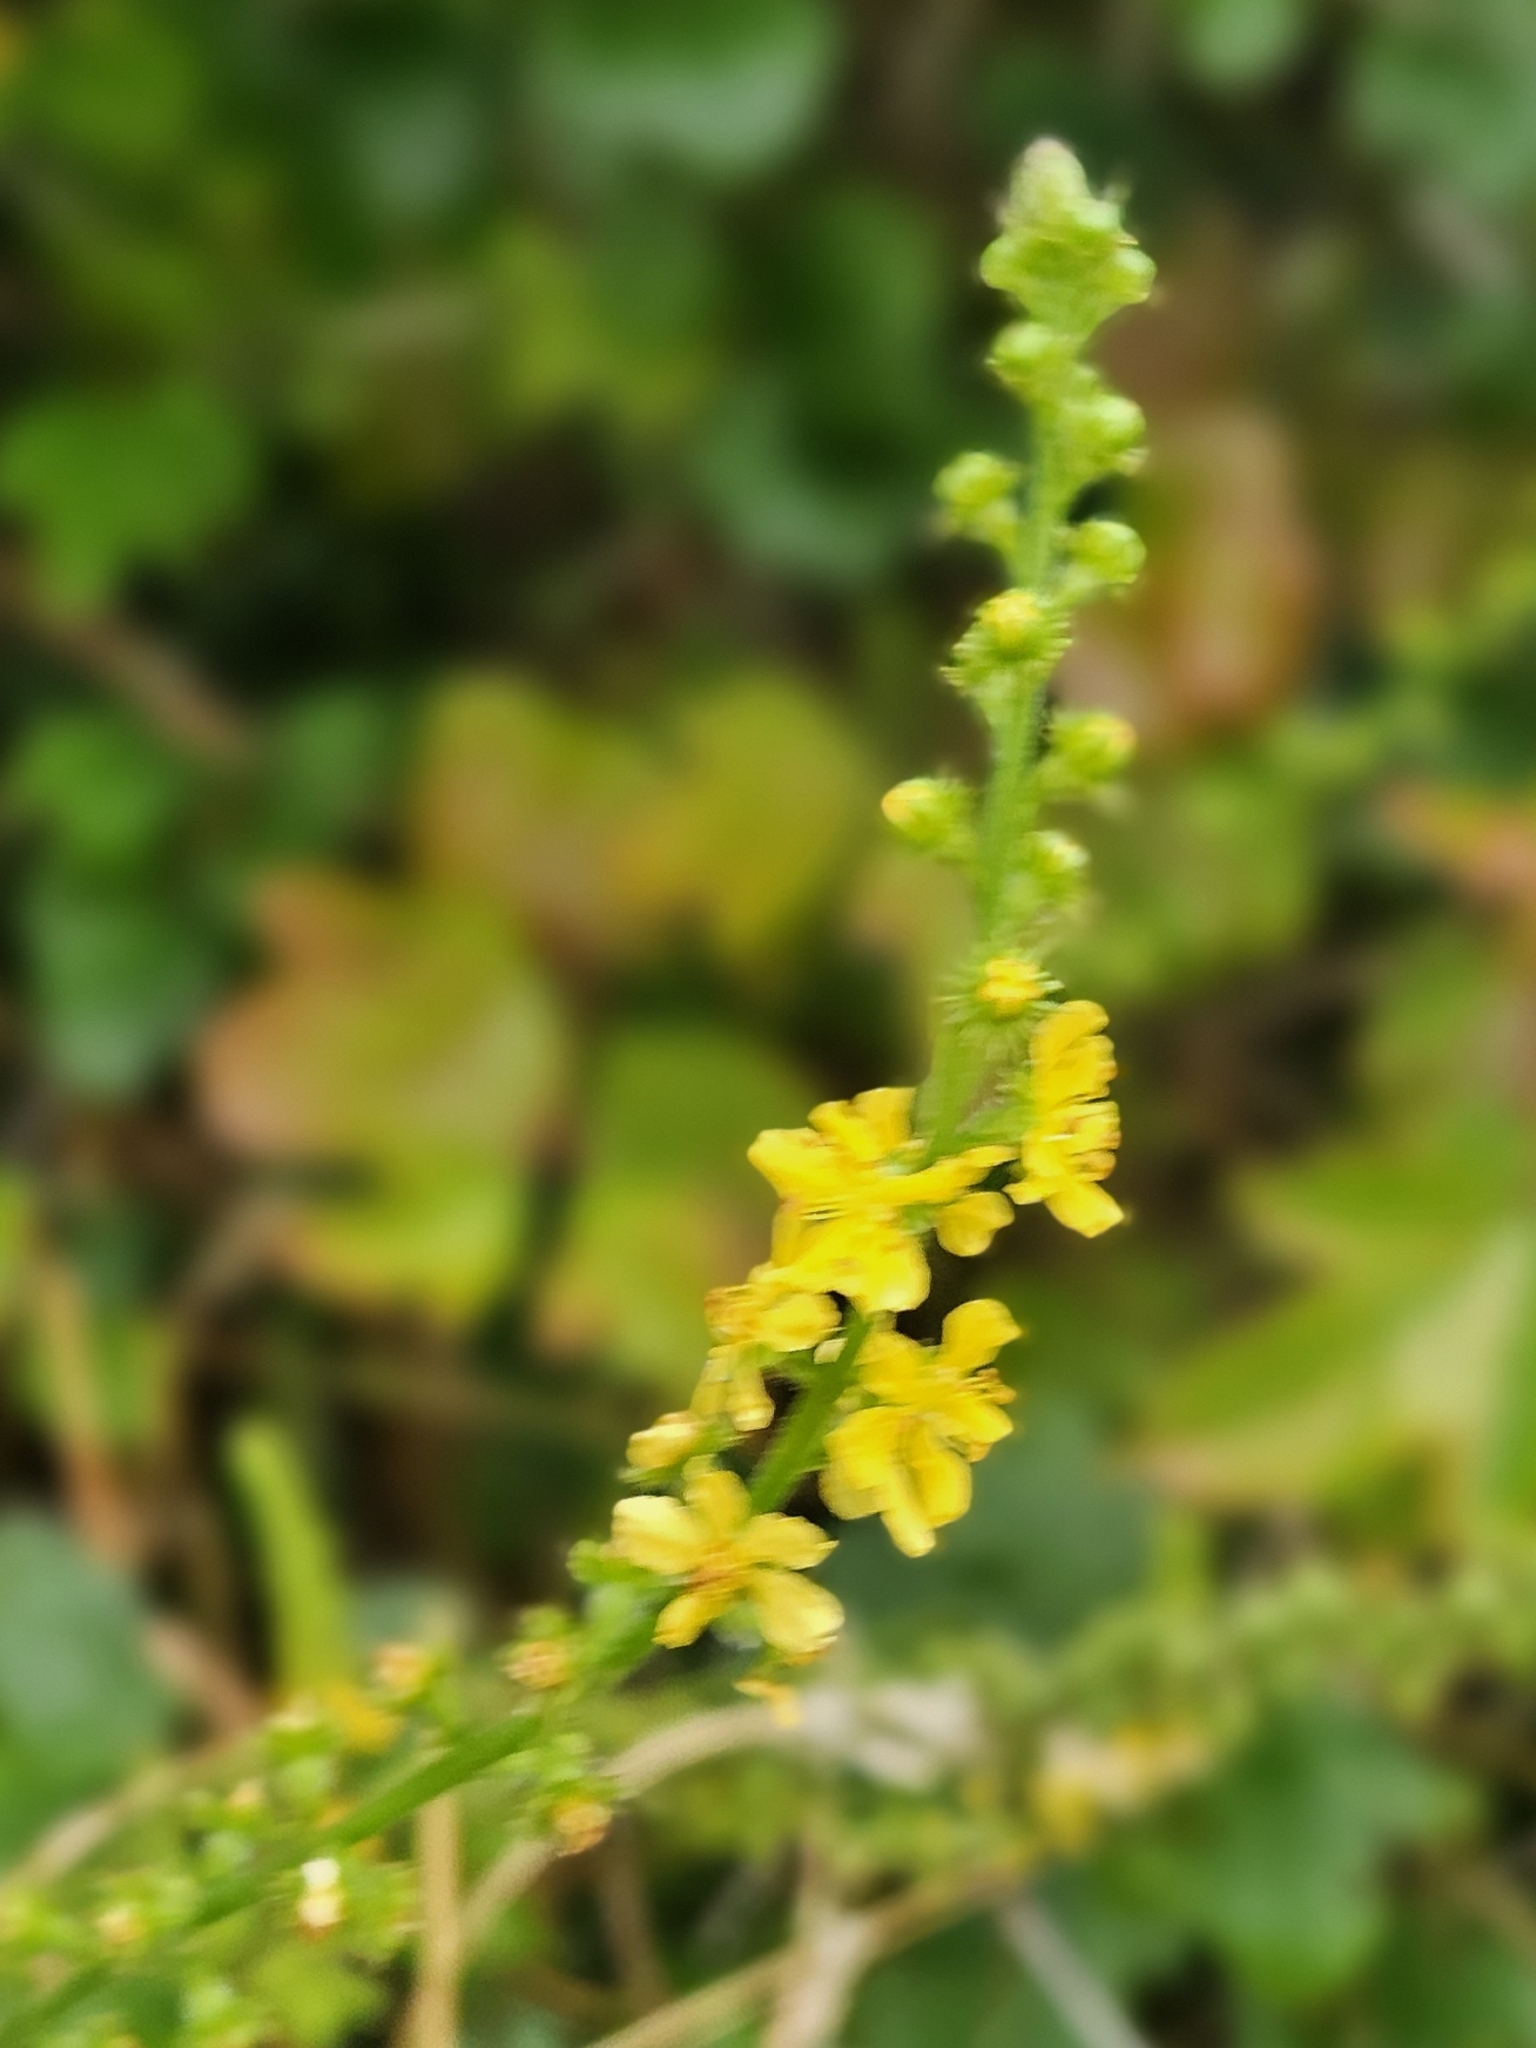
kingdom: Plantae
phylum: Tracheophyta
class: Magnoliopsida
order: Rosales
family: Rosaceae
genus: Agrimonia
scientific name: Agrimonia eupatoria
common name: Agrimony
